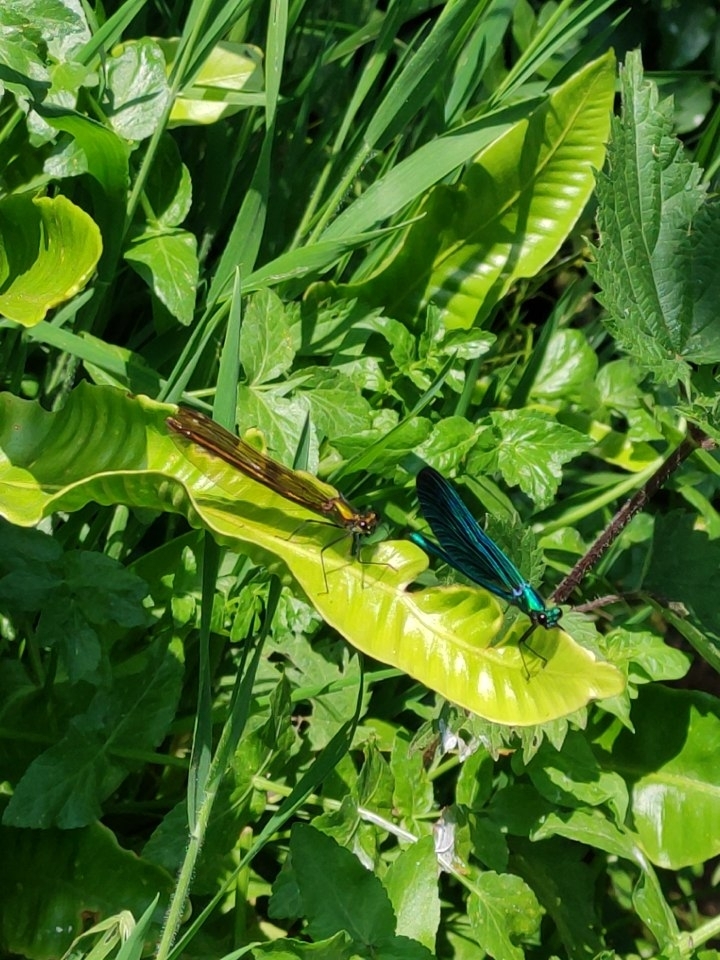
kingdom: Animalia
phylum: Arthropoda
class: Insecta
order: Odonata
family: Calopterygidae
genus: Calopteryx
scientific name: Calopteryx virgo
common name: Beautiful demoiselle
